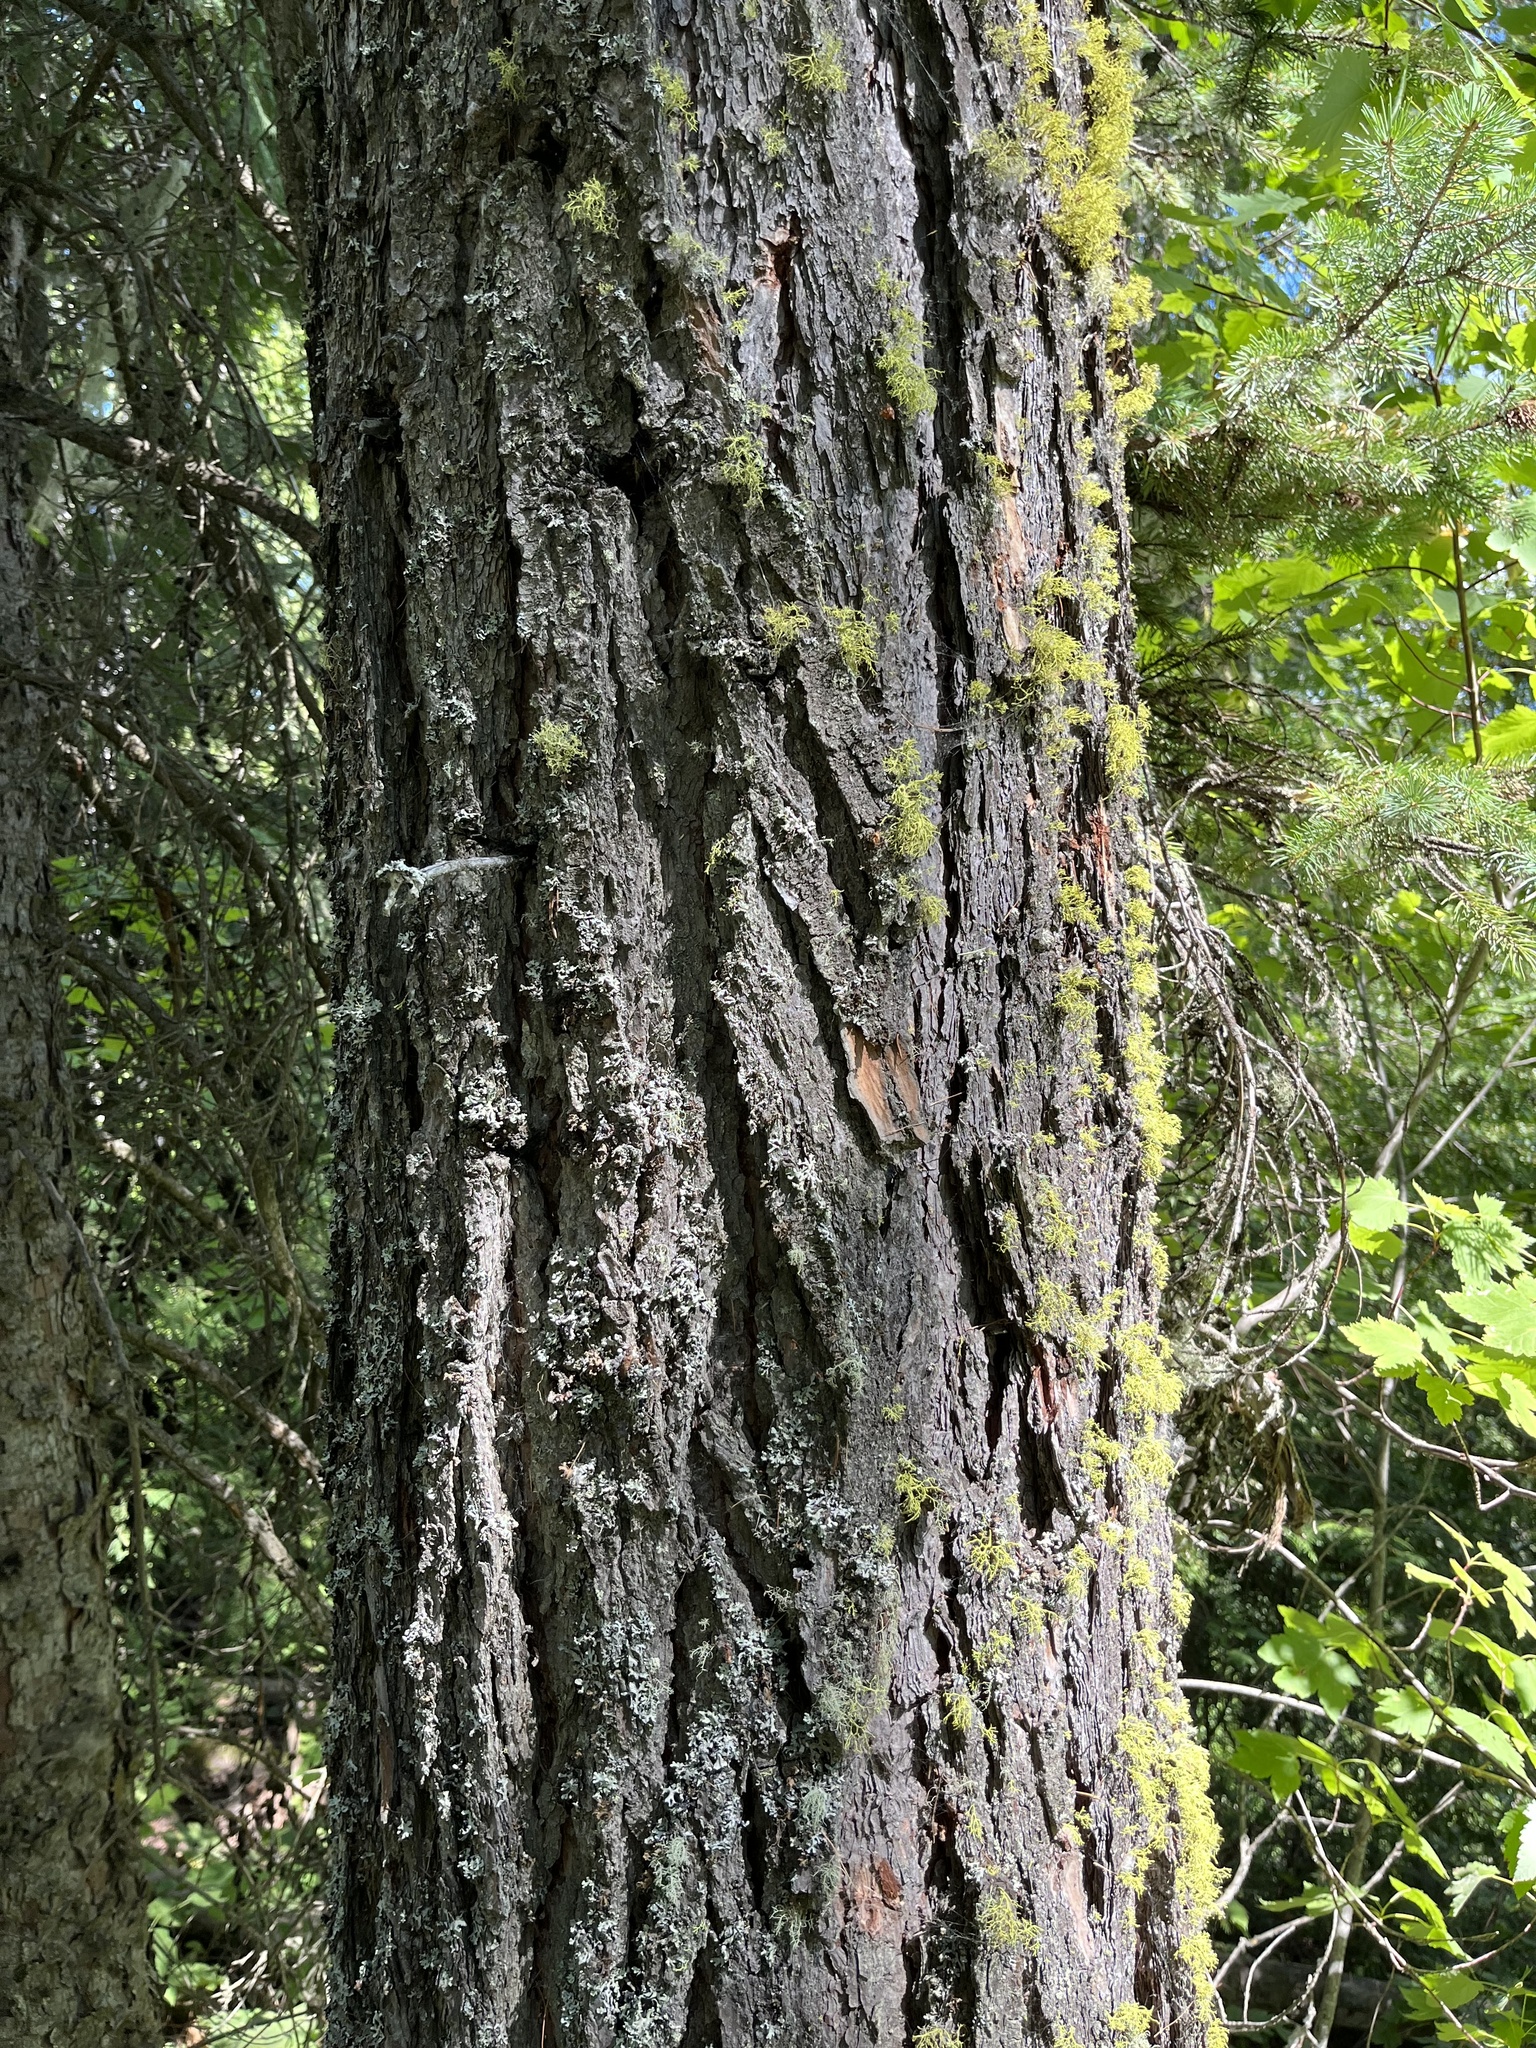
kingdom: Plantae
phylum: Tracheophyta
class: Pinopsida
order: Pinales
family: Pinaceae
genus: Pseudotsuga
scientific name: Pseudotsuga menziesii
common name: Douglas fir
